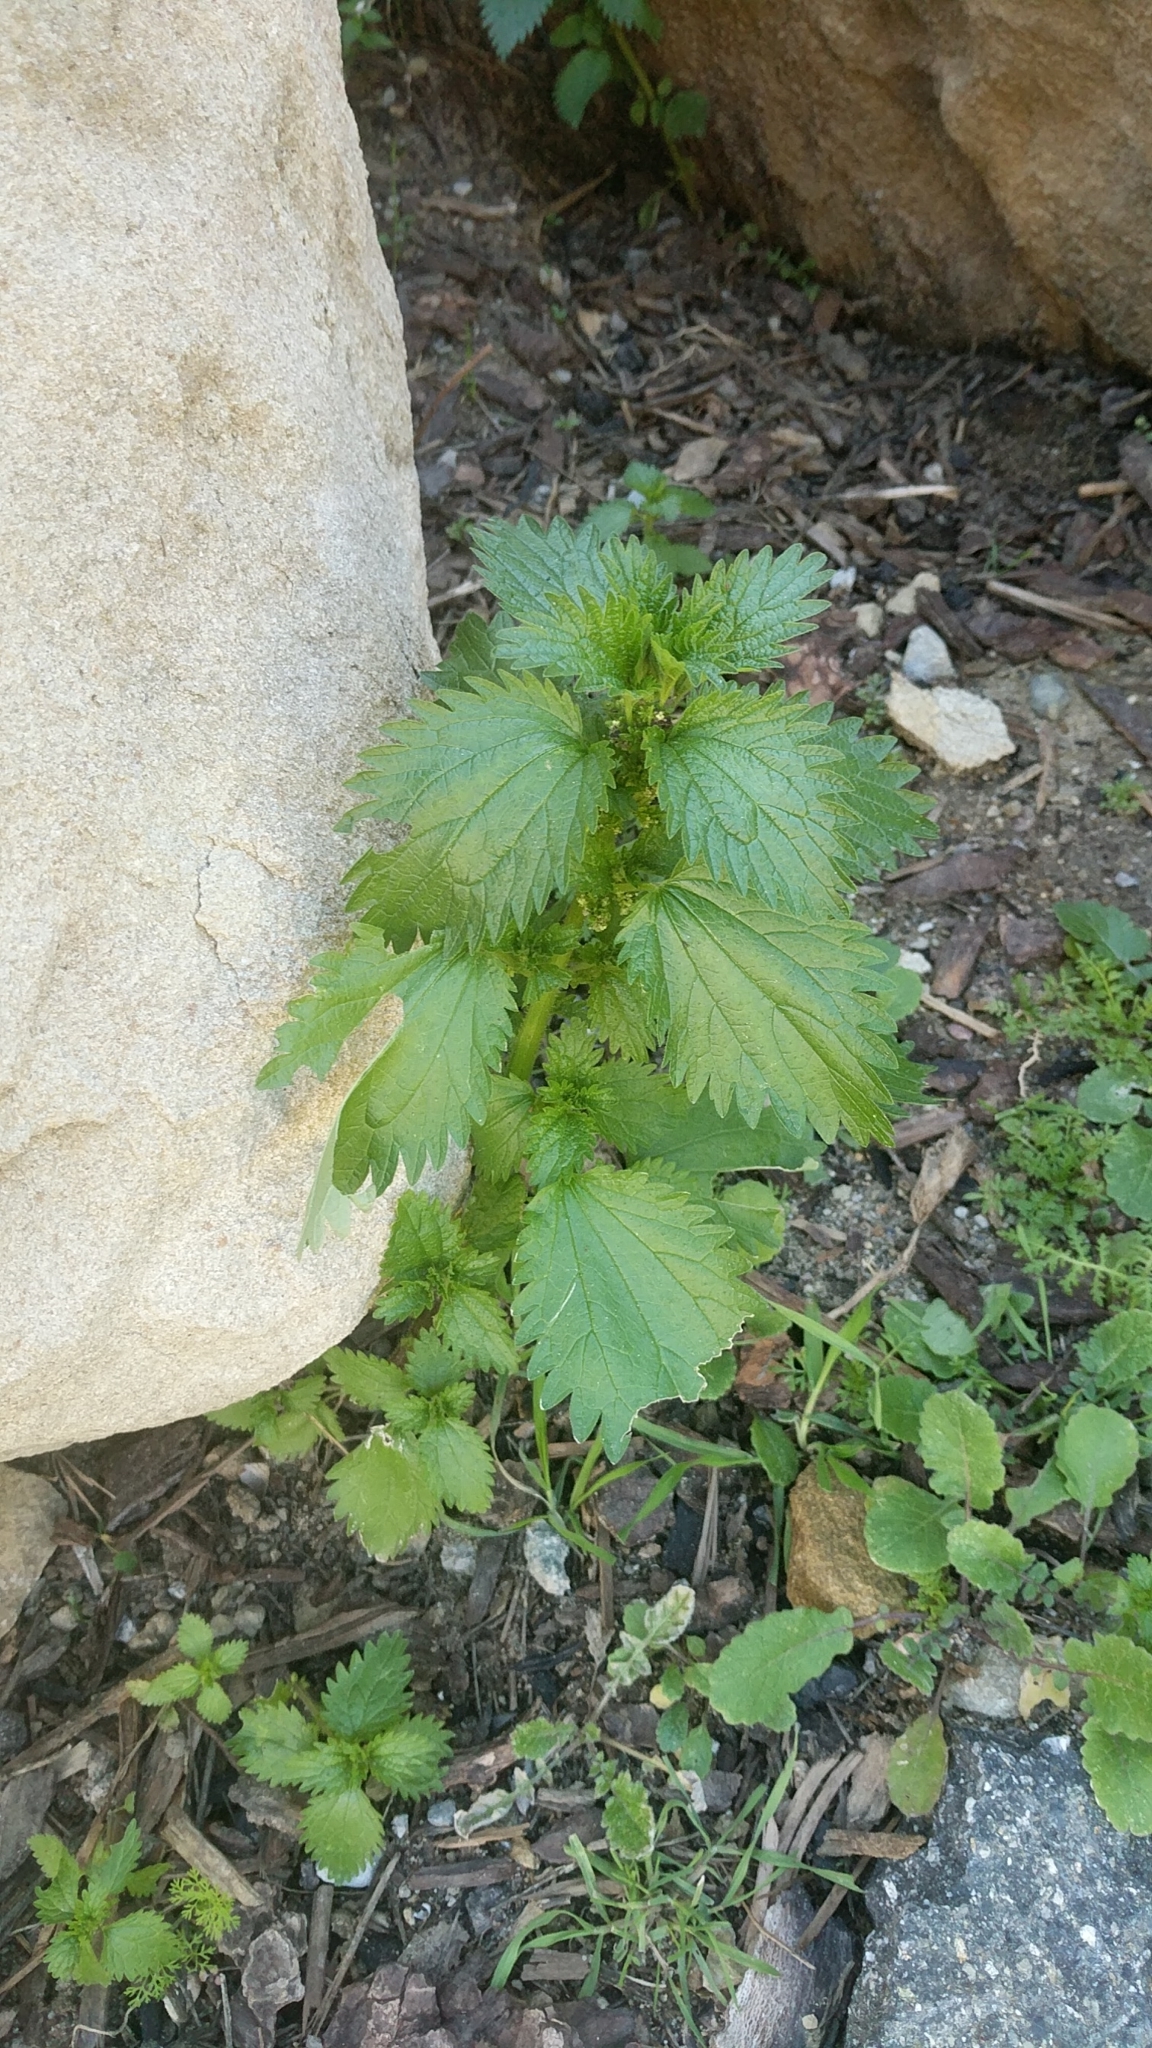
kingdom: Plantae
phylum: Tracheophyta
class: Magnoliopsida
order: Rosales
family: Urticaceae
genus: Urtica
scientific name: Urtica urens
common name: Dwarf nettle
